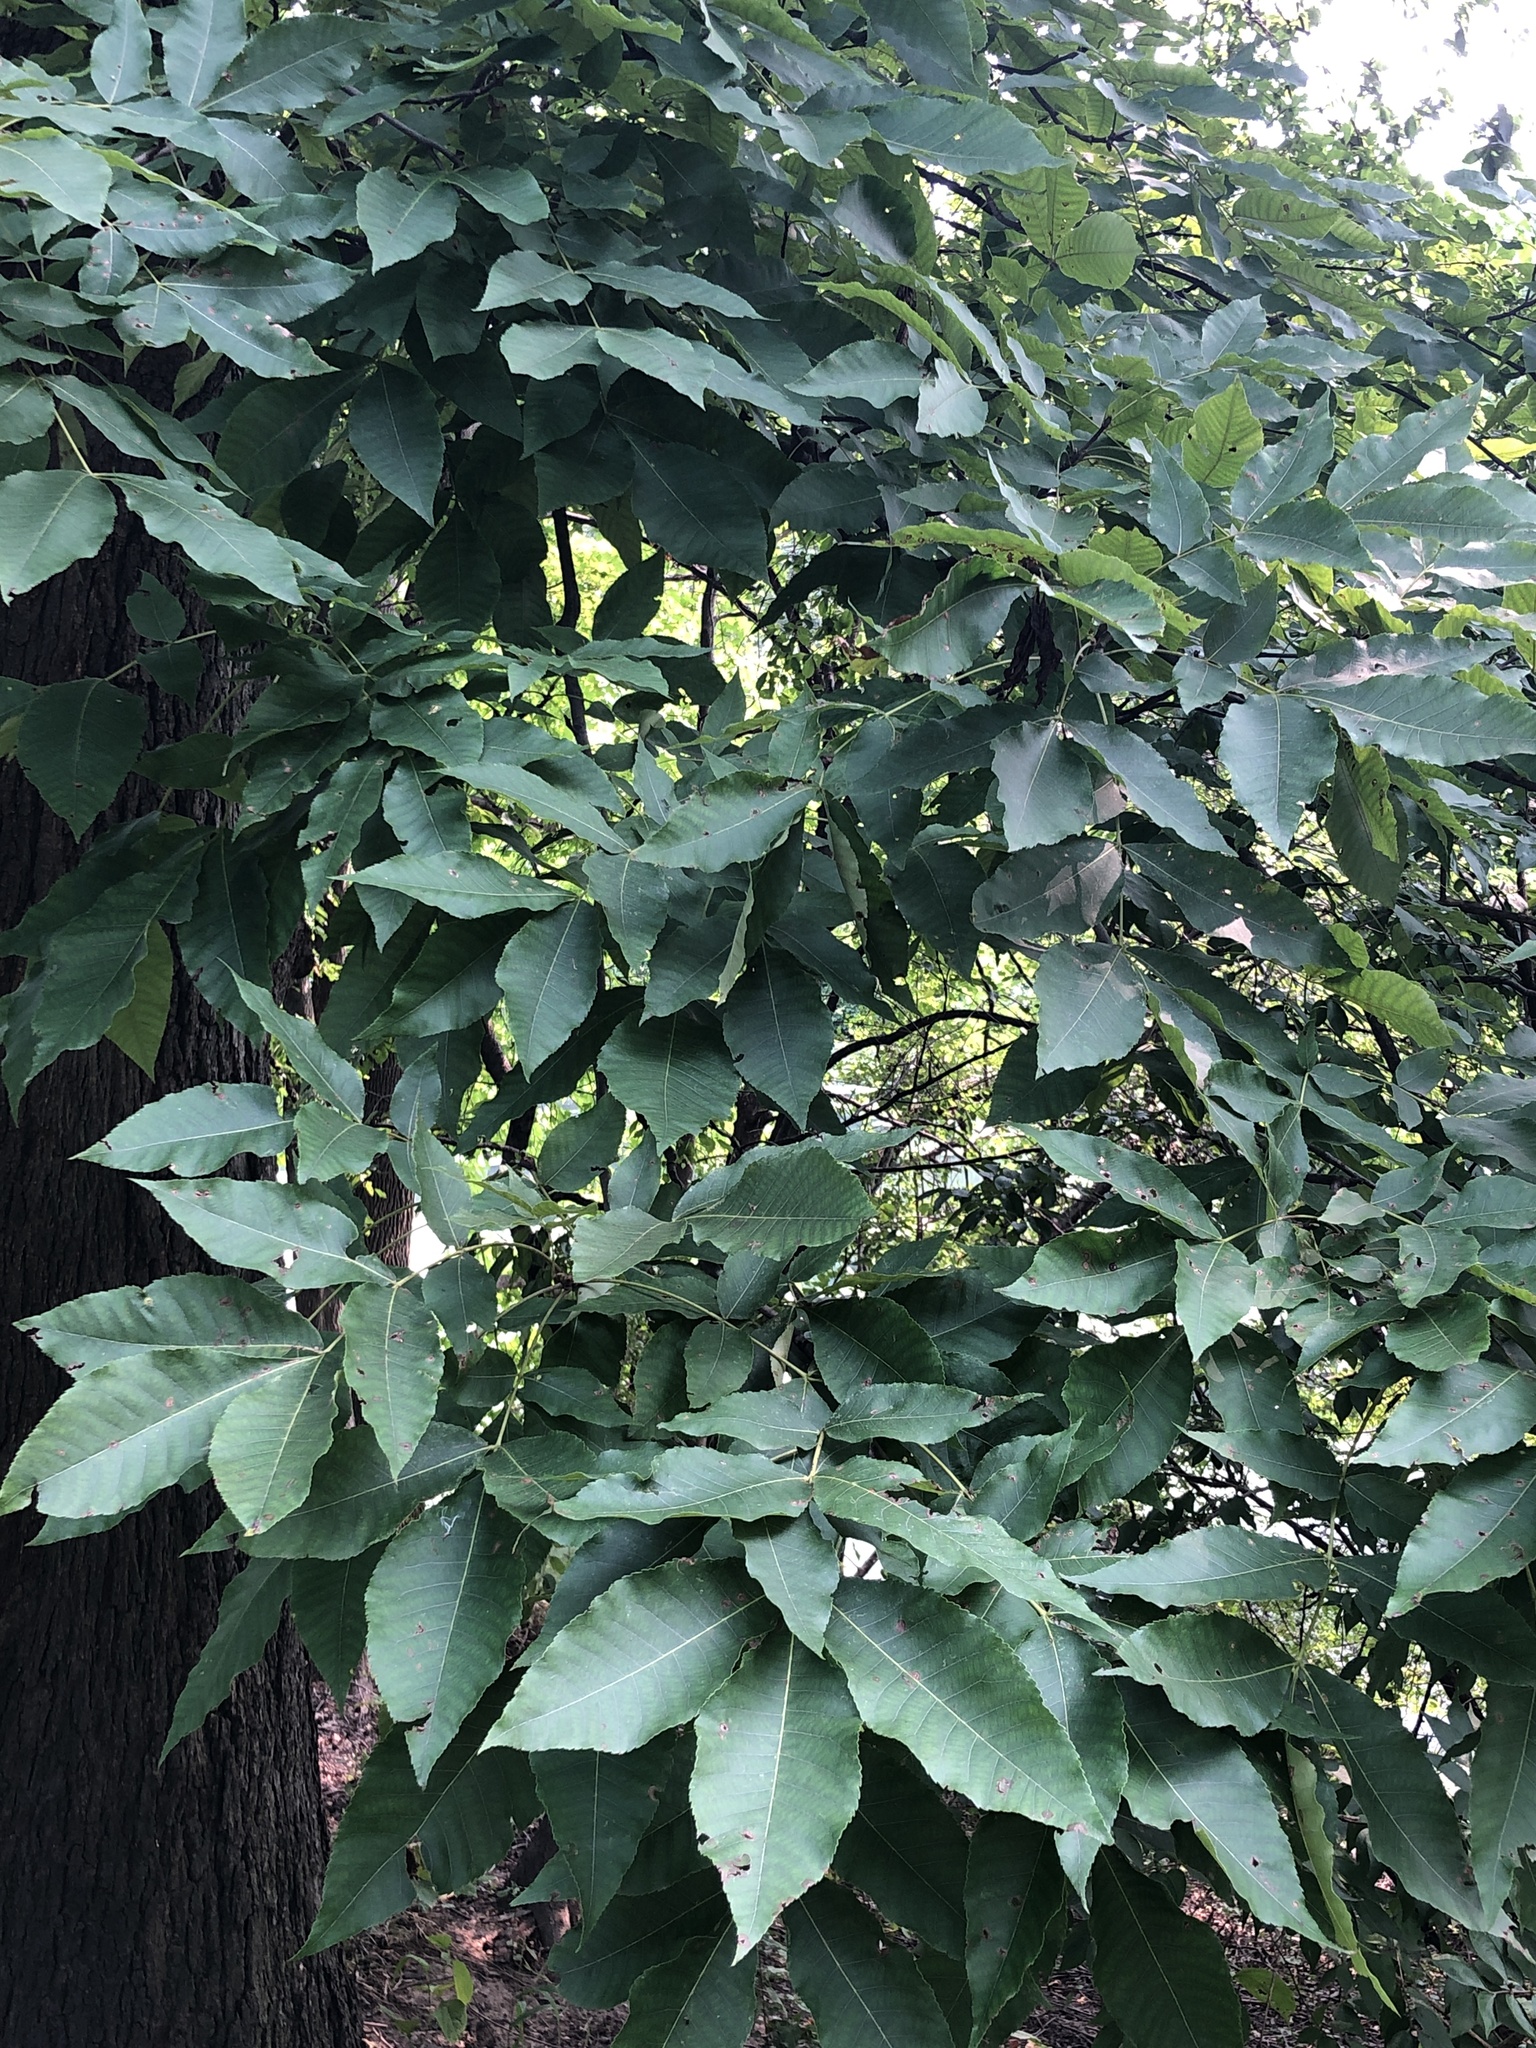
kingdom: Plantae
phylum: Tracheophyta
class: Magnoliopsida
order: Fagales
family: Juglandaceae
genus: Carya
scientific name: Carya cordiformis
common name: Bitternut hickory
